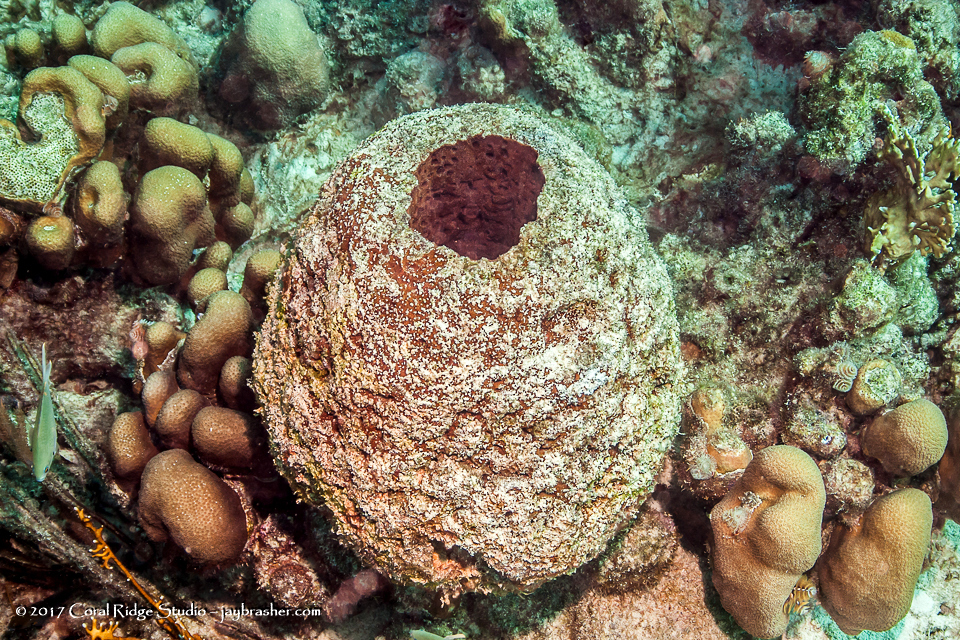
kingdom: Animalia
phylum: Porifera
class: Demospongiae
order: Biemnida
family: Biemnidae
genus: Neofibularia
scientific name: Neofibularia nolitangere
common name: Do-not-touch-me sponge
